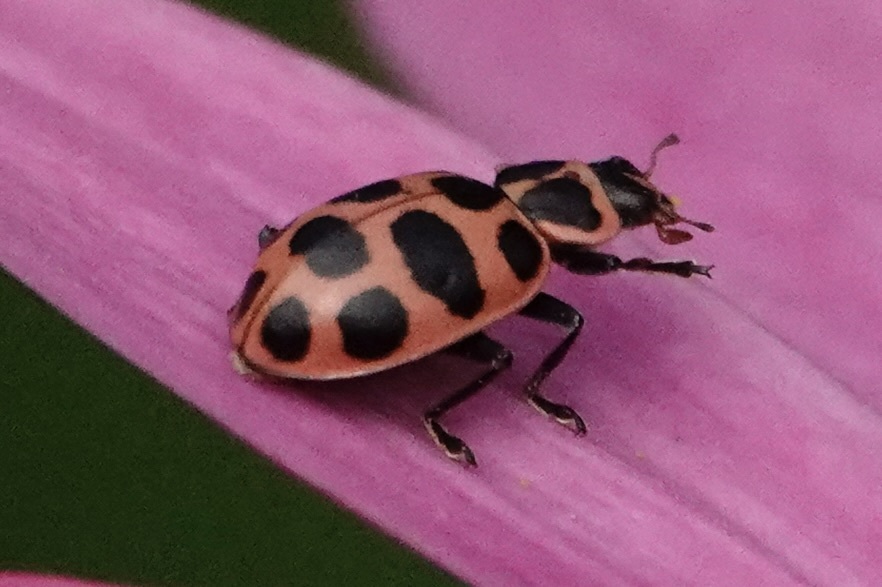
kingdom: Animalia
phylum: Arthropoda
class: Insecta
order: Coleoptera
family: Coccinellidae
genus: Coleomegilla
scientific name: Coleomegilla maculata
